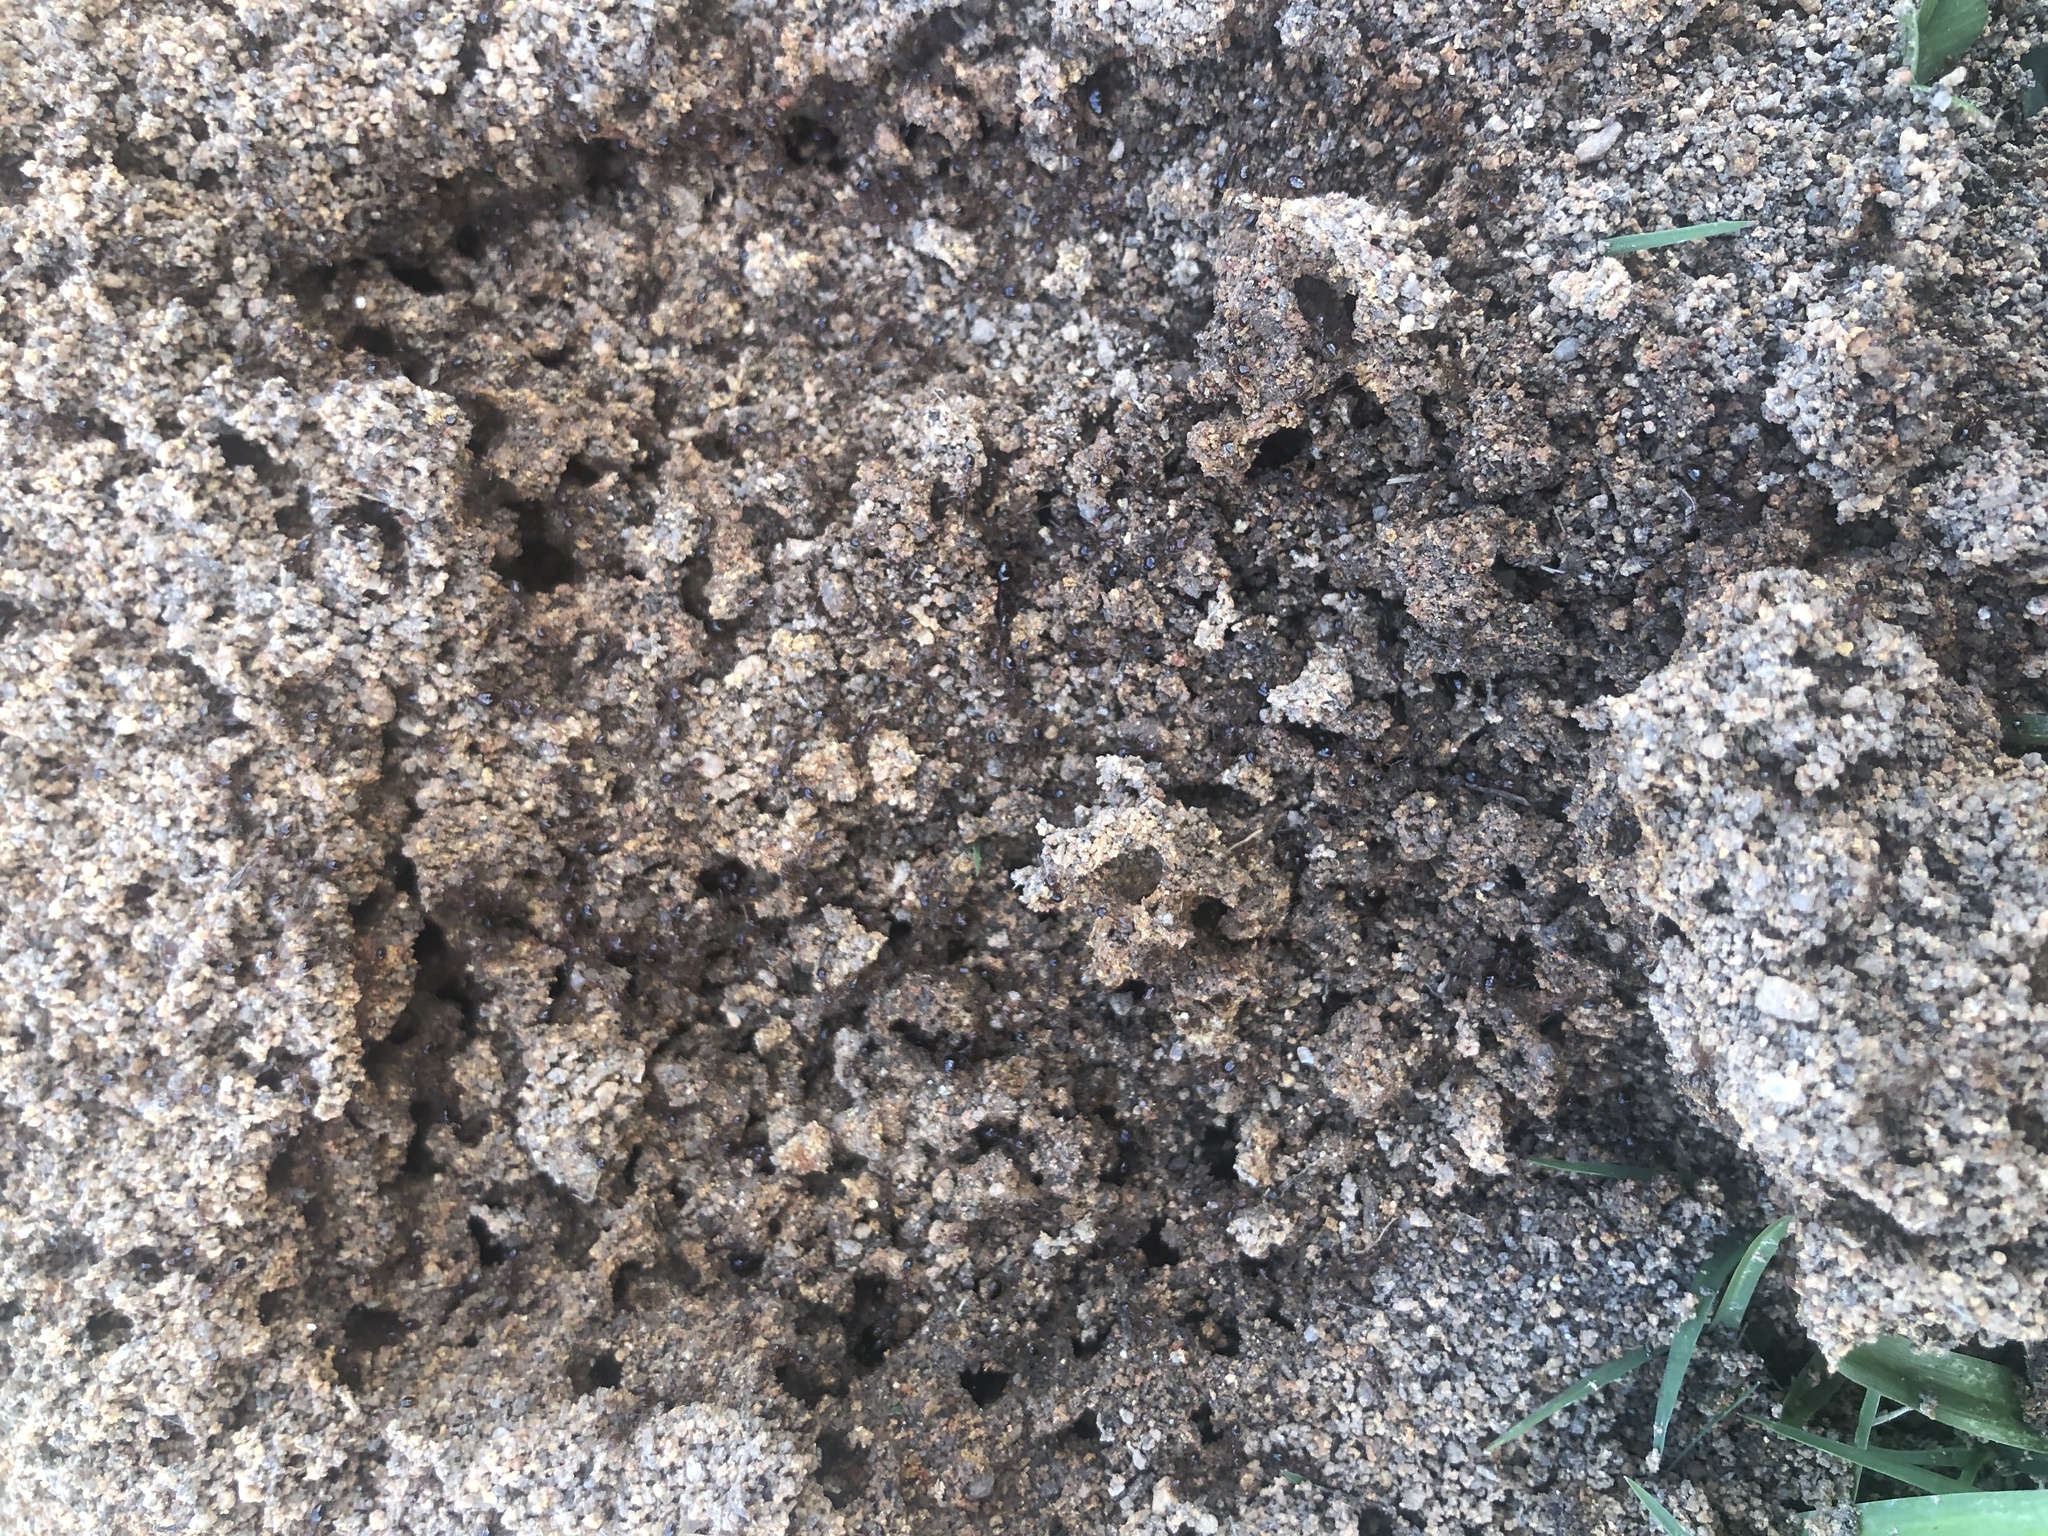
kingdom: Animalia
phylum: Arthropoda
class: Insecta
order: Hymenoptera
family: Formicidae
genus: Solenopsis
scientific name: Solenopsis invicta
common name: Red imported fire ant
